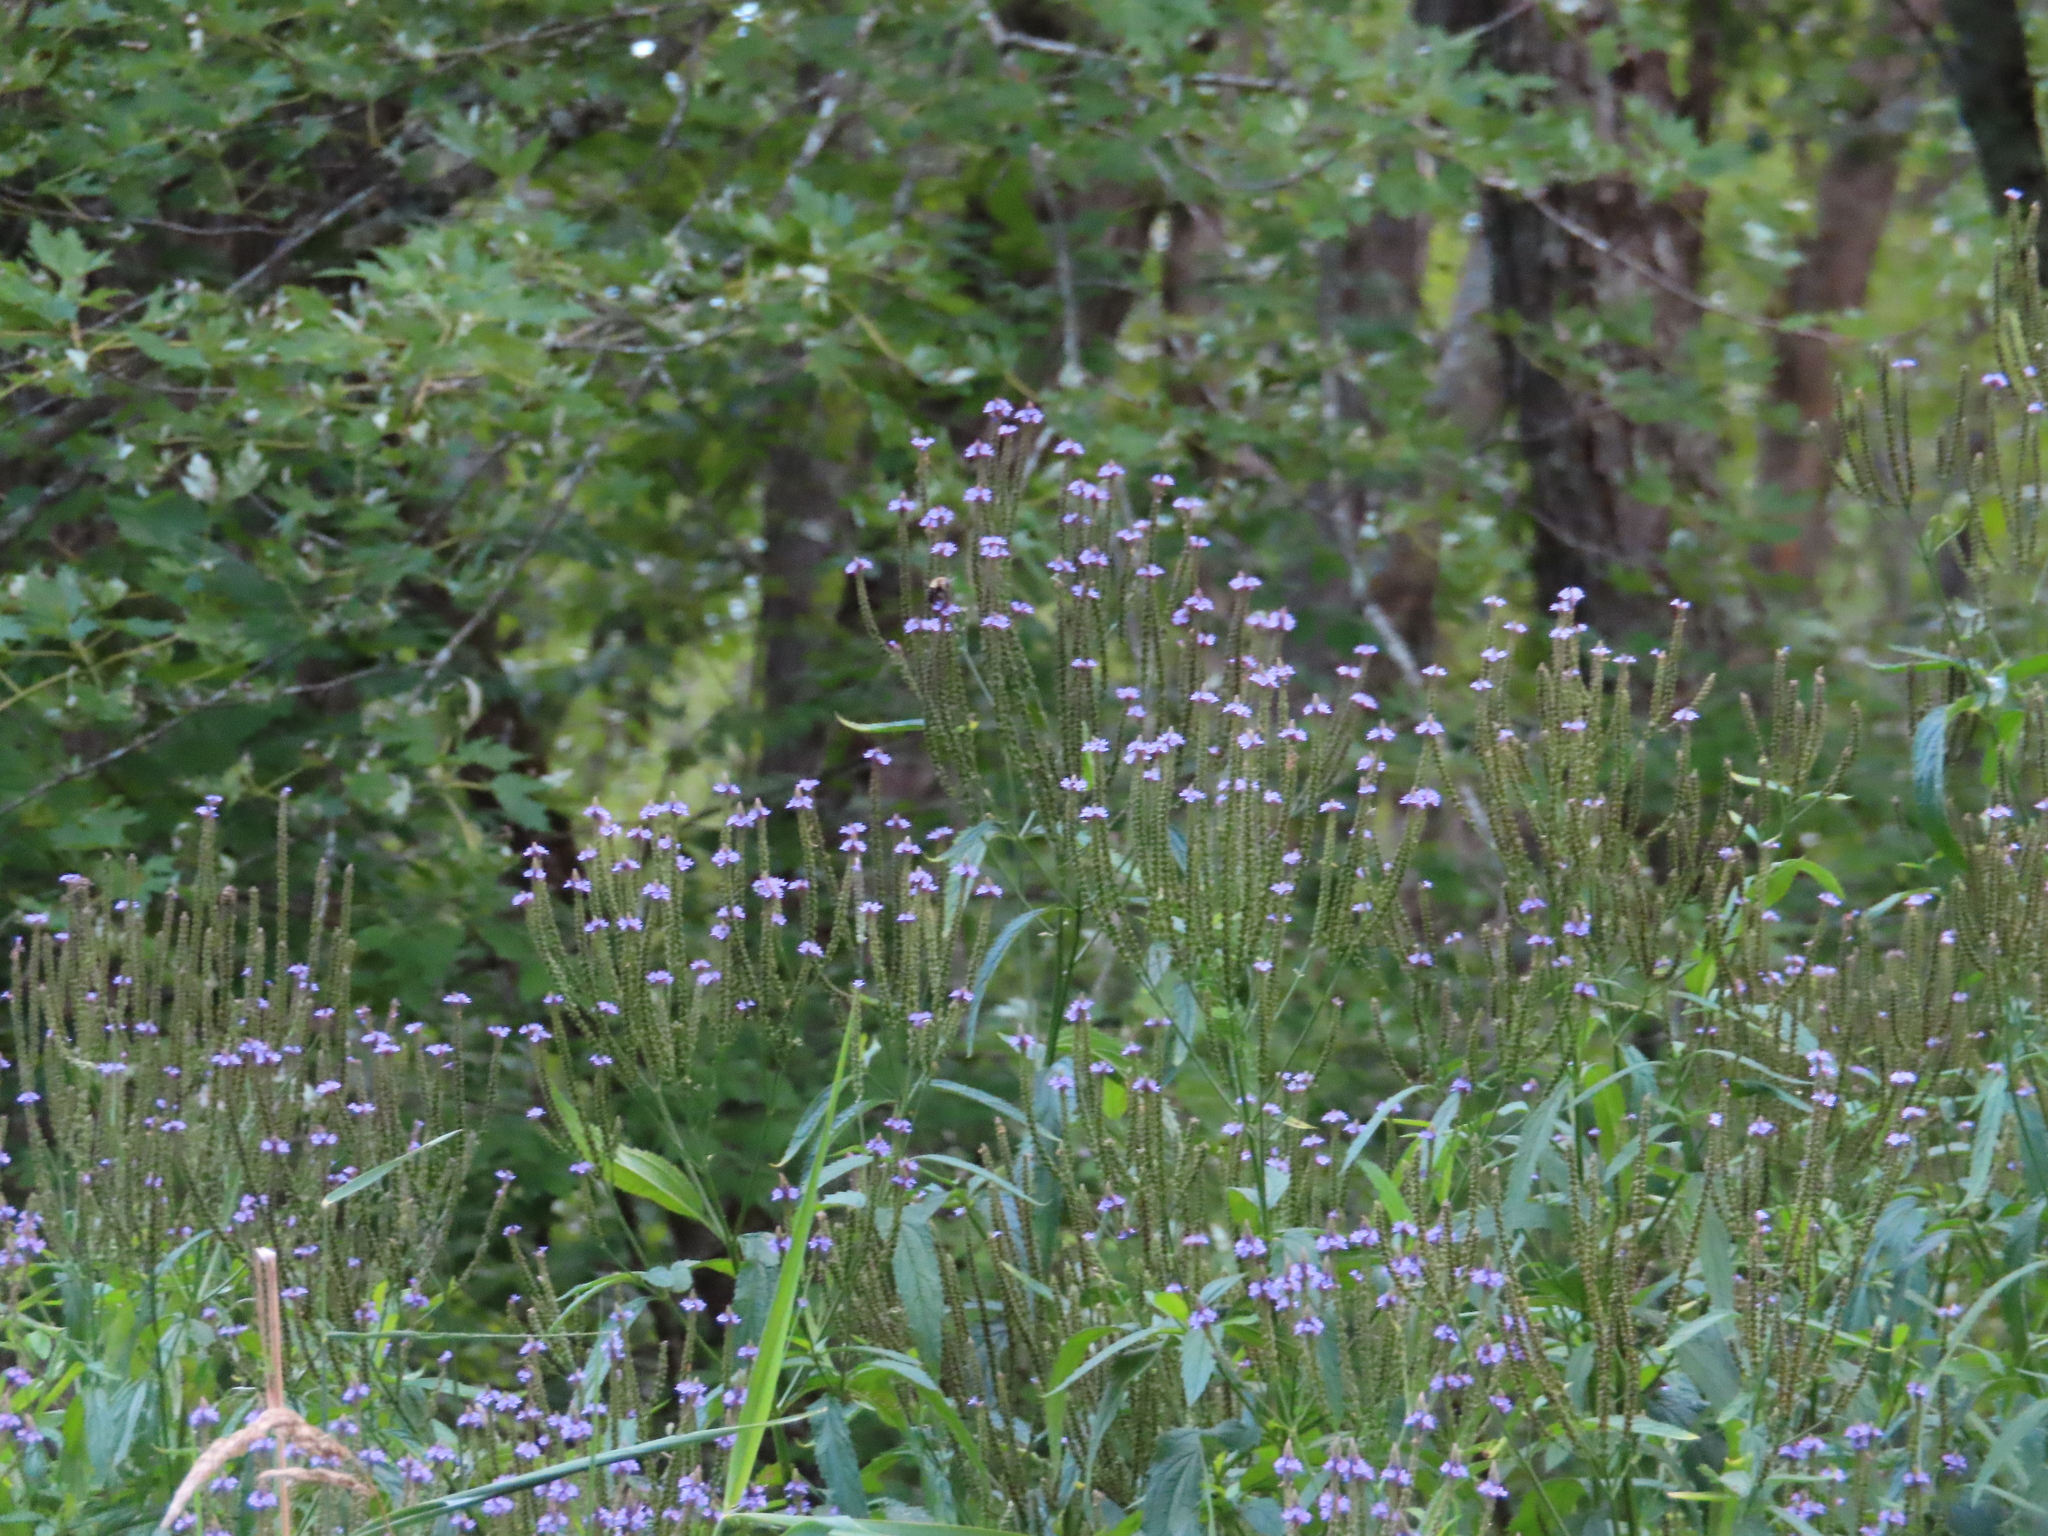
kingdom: Plantae
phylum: Tracheophyta
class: Magnoliopsida
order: Lamiales
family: Verbenaceae
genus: Verbena
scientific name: Verbena hastata
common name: American blue vervain
